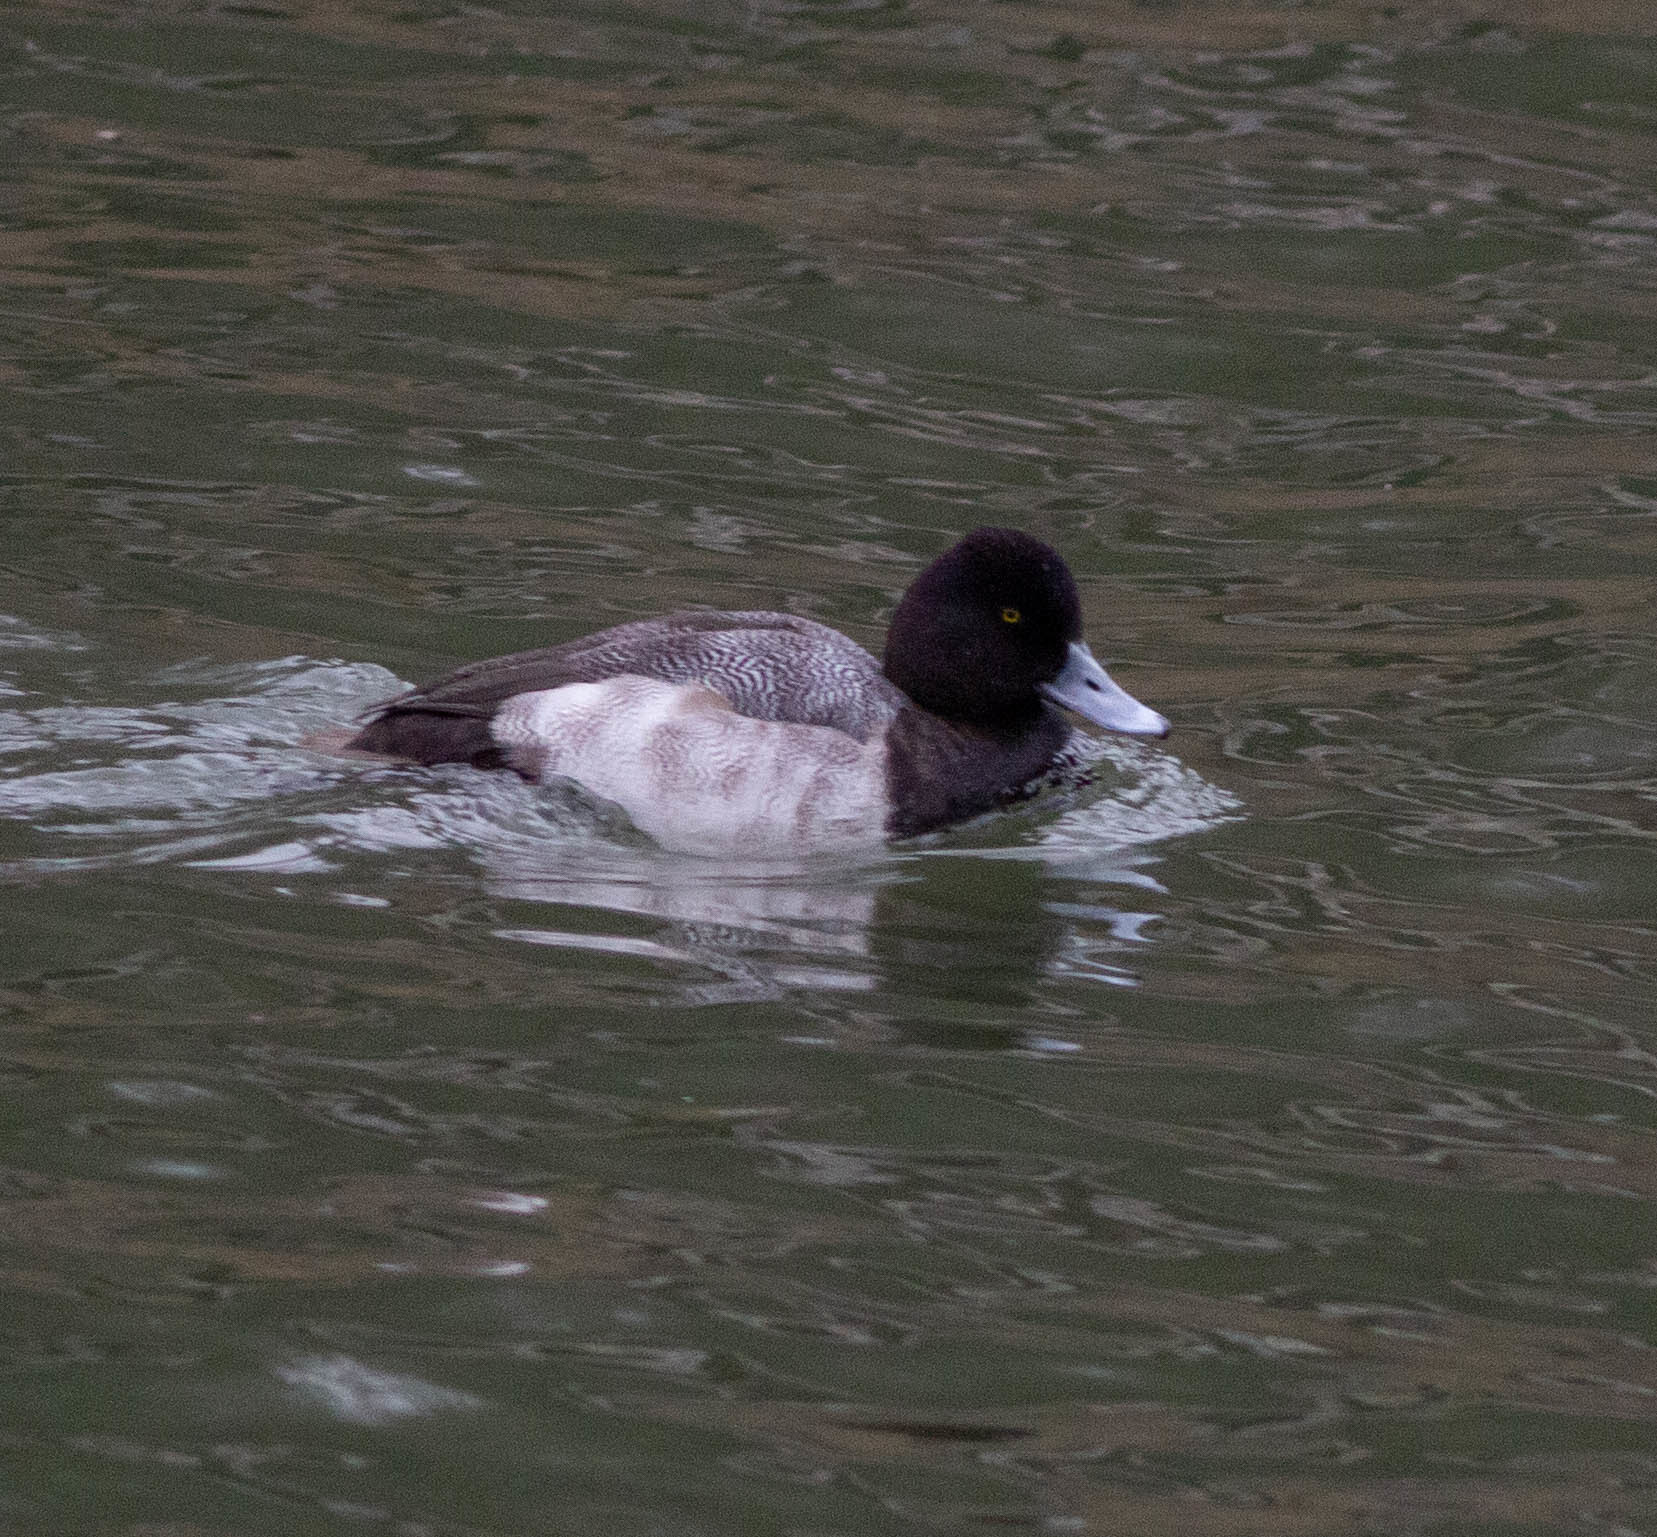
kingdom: Animalia
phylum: Chordata
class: Aves
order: Anseriformes
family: Anatidae
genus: Aythya
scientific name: Aythya affinis
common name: Lesser scaup
